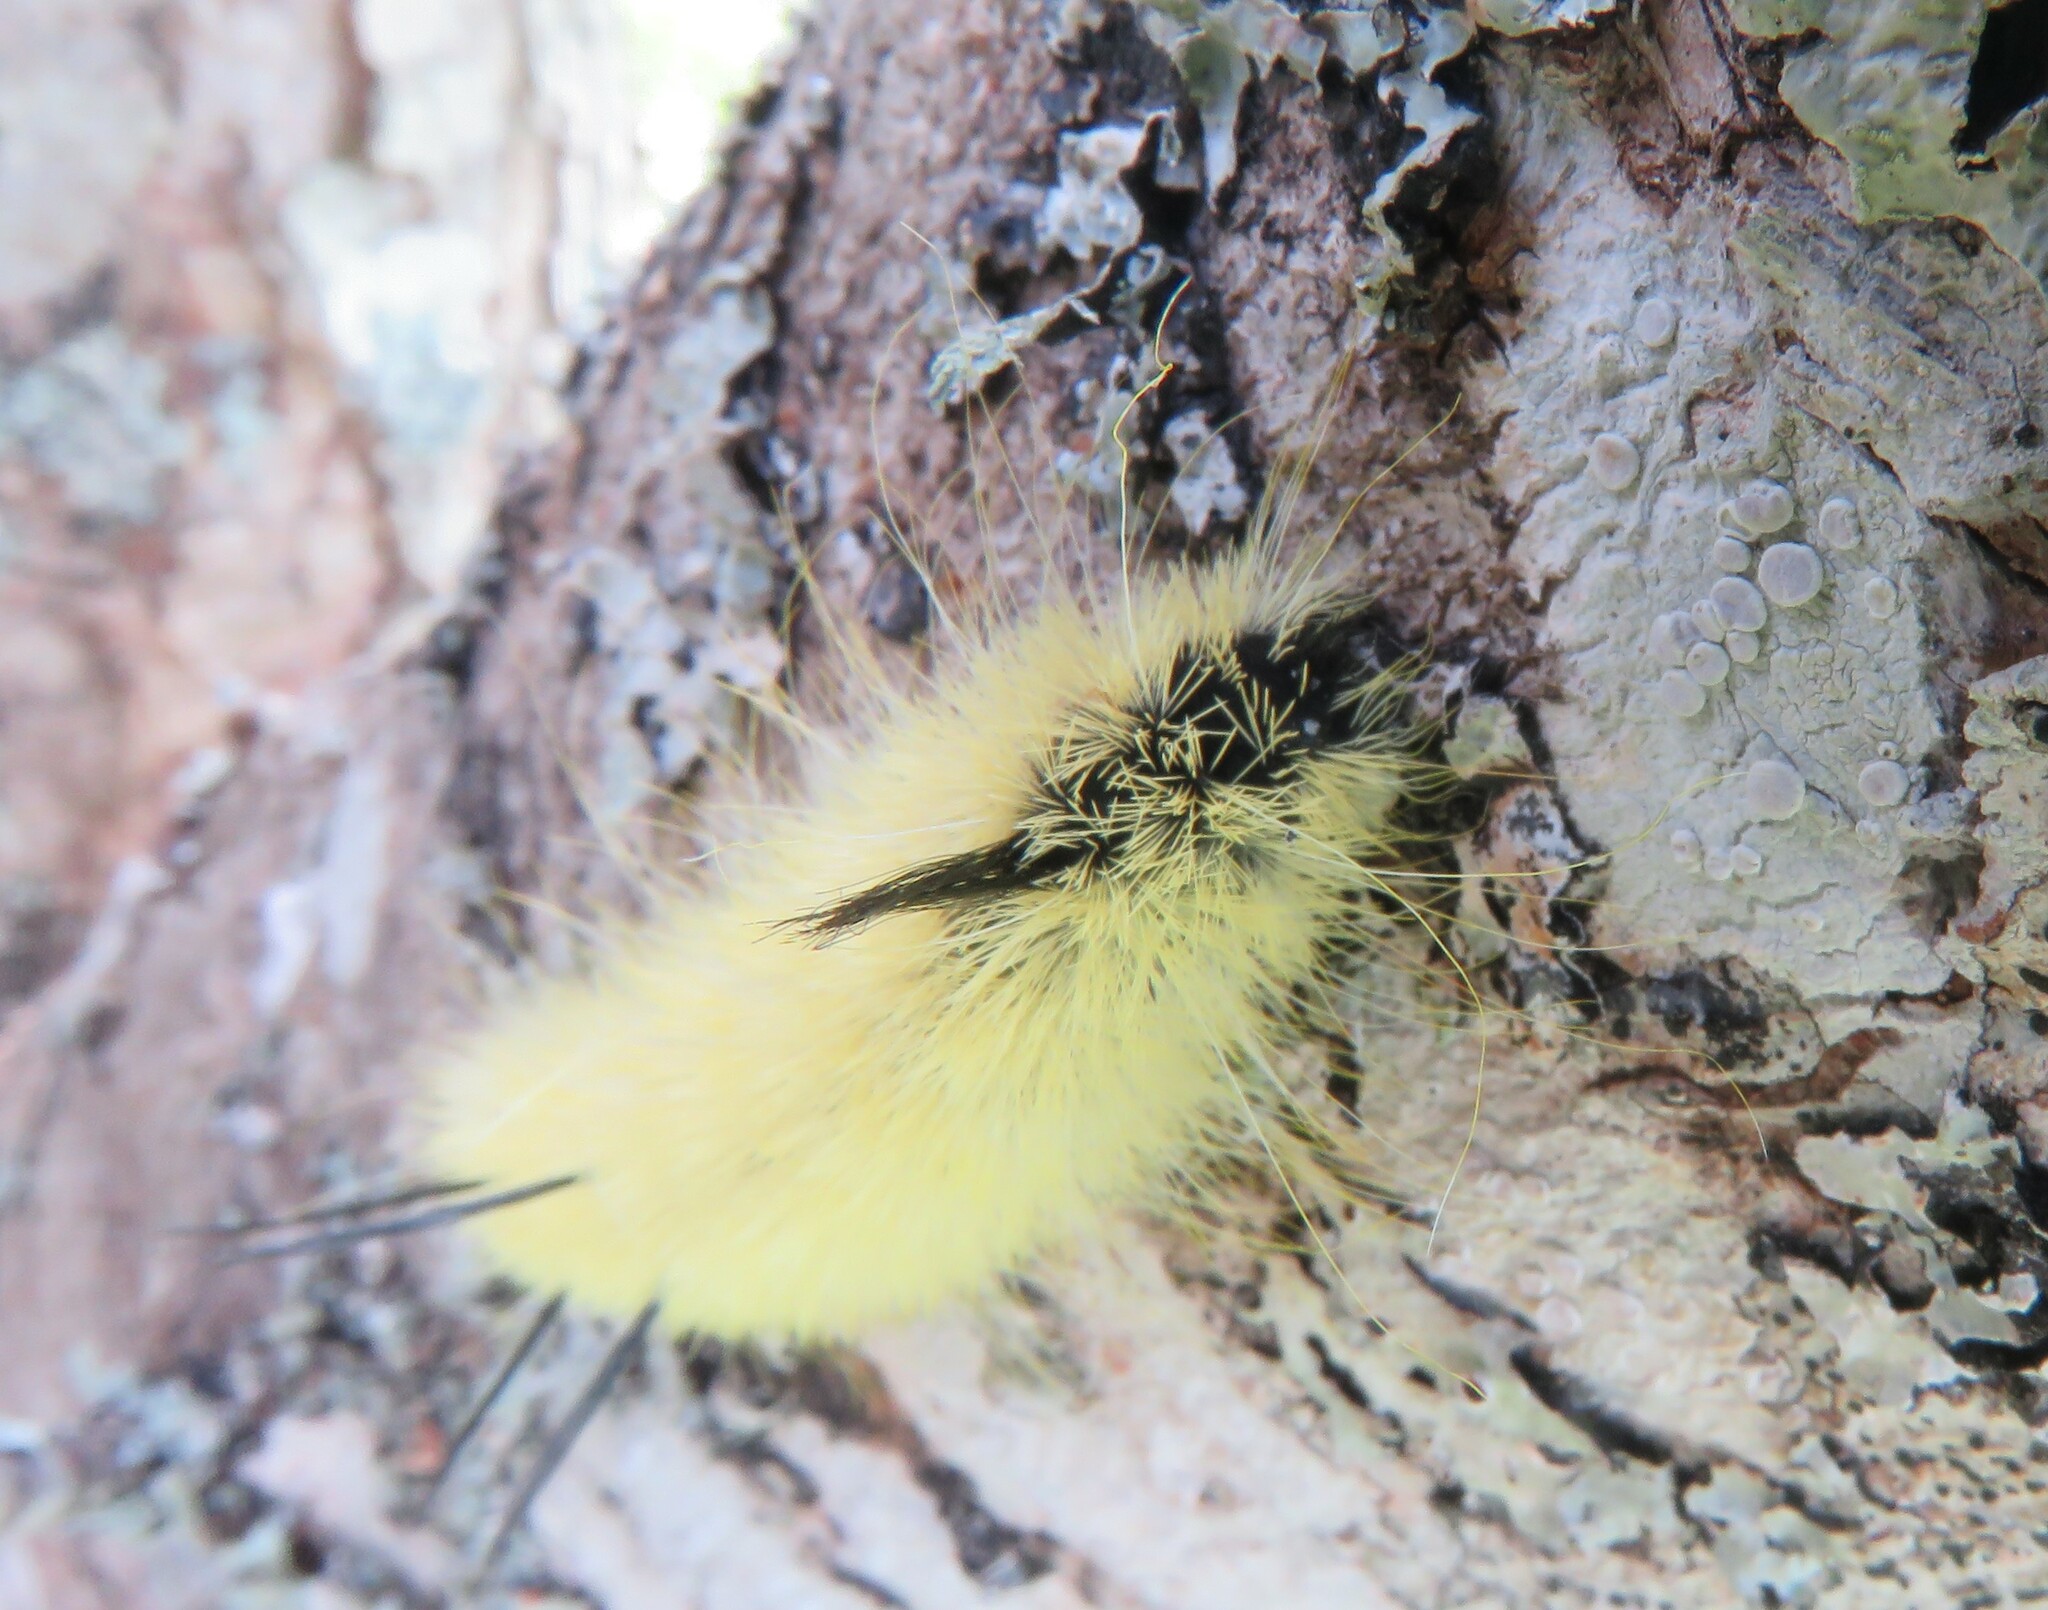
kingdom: Animalia
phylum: Arthropoda
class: Insecta
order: Lepidoptera
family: Noctuidae
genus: Acronicta
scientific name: Acronicta americana
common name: American dagger
